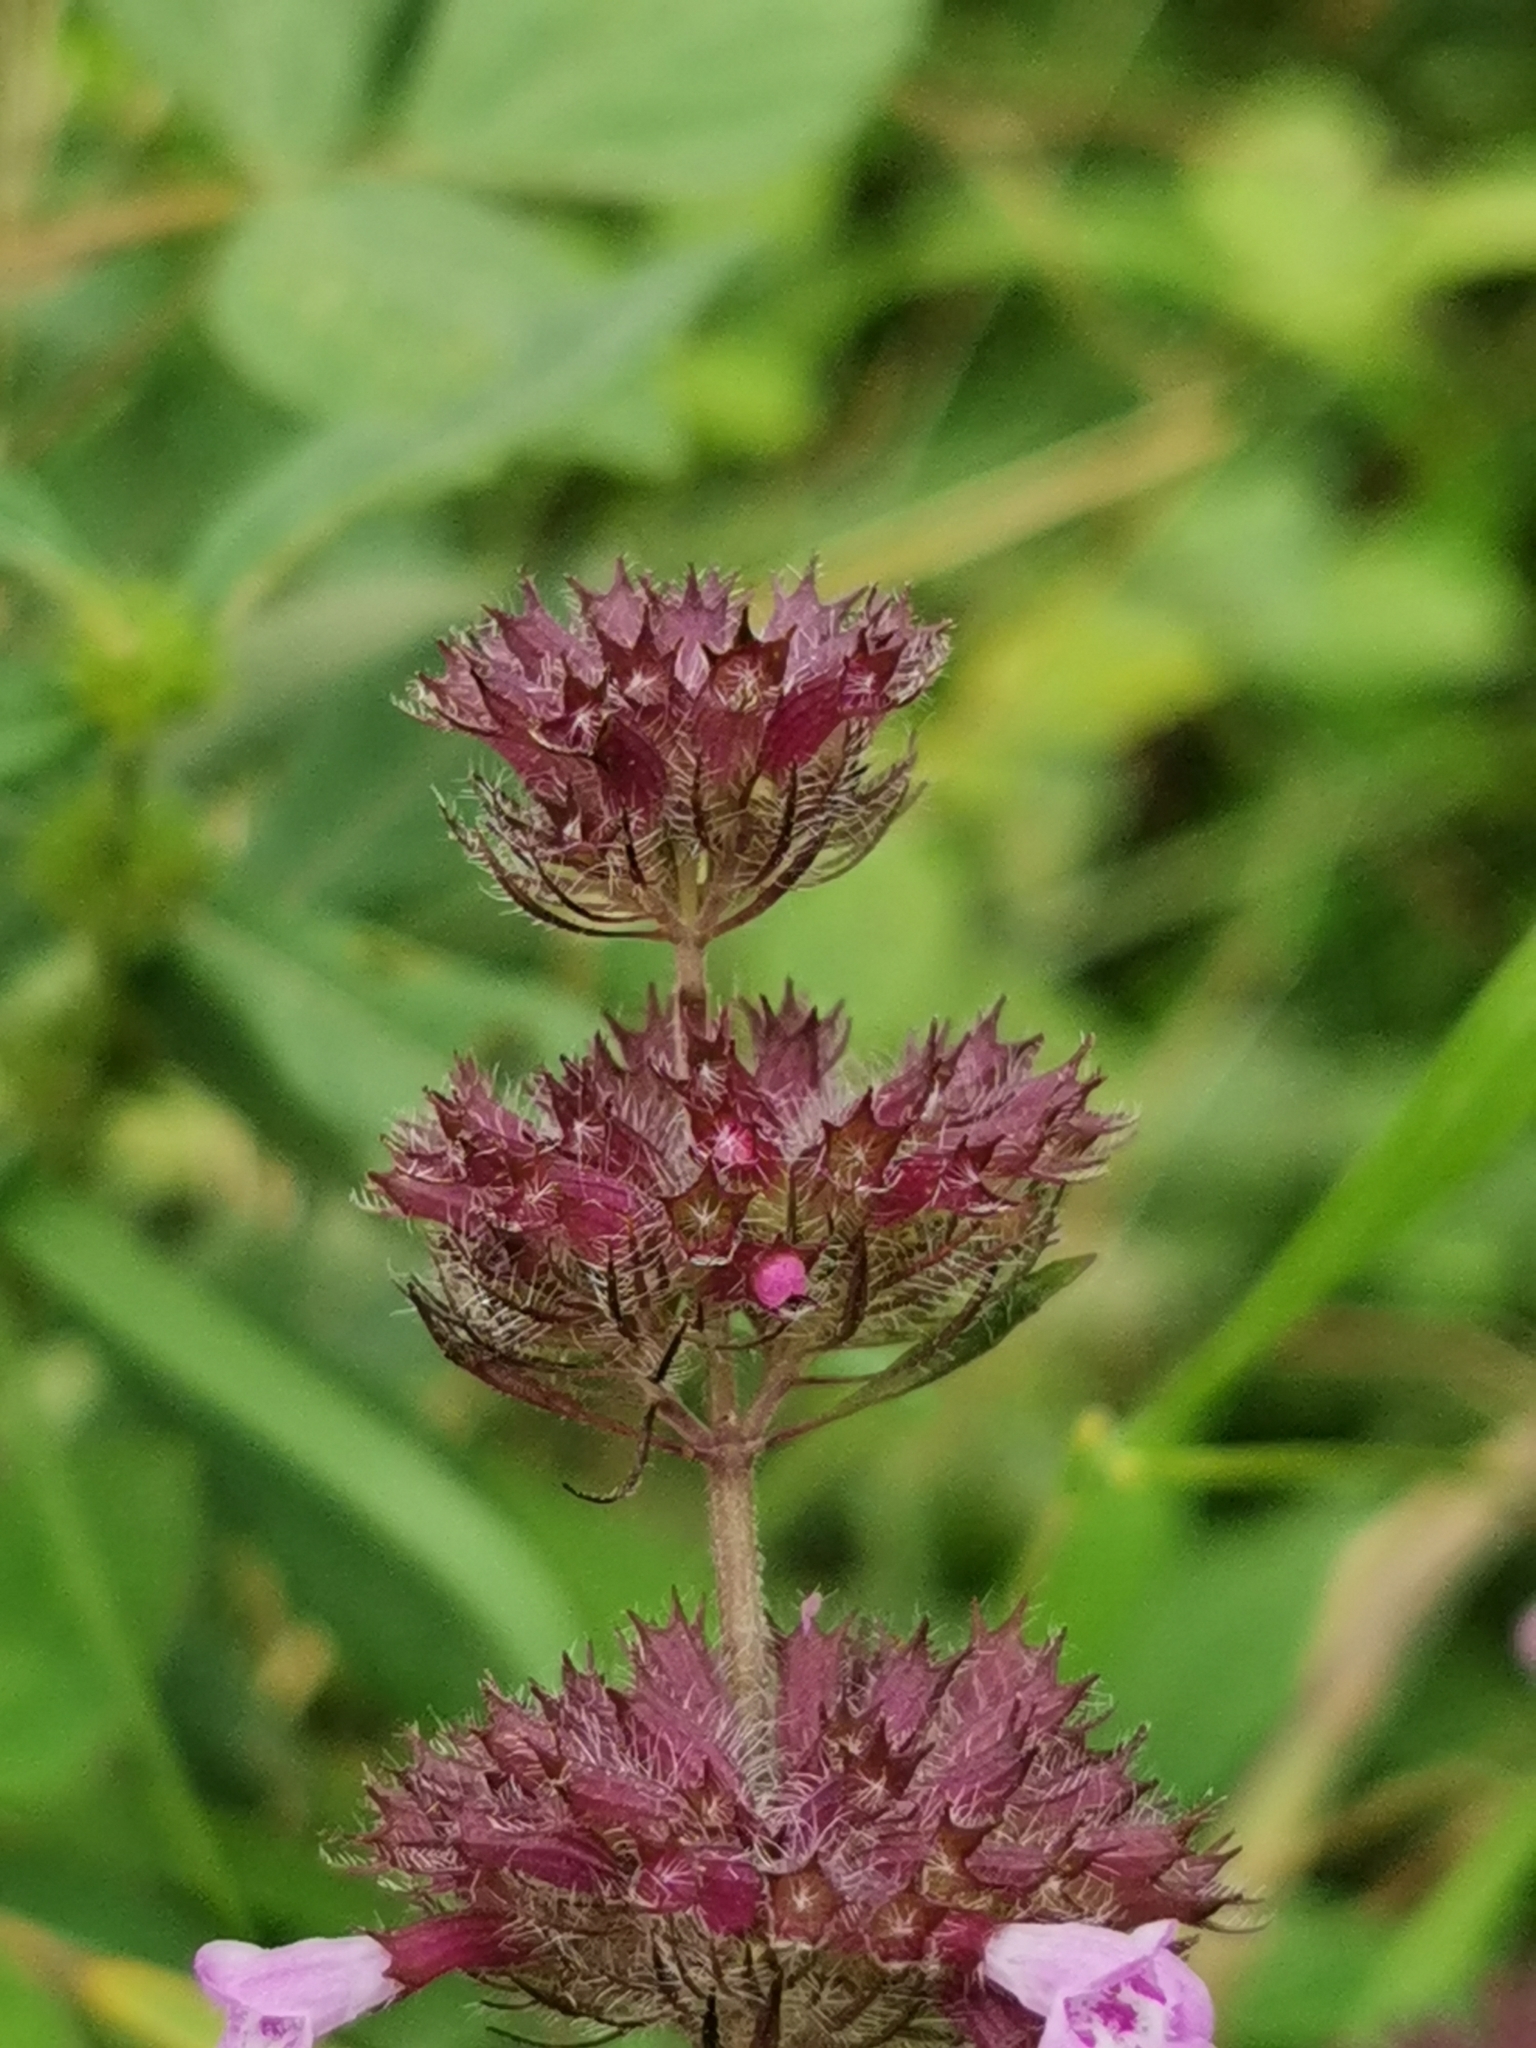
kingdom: Plantae
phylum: Tracheophyta
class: Magnoliopsida
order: Lamiales
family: Lamiaceae
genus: Clinopodium
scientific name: Clinopodium chinense
